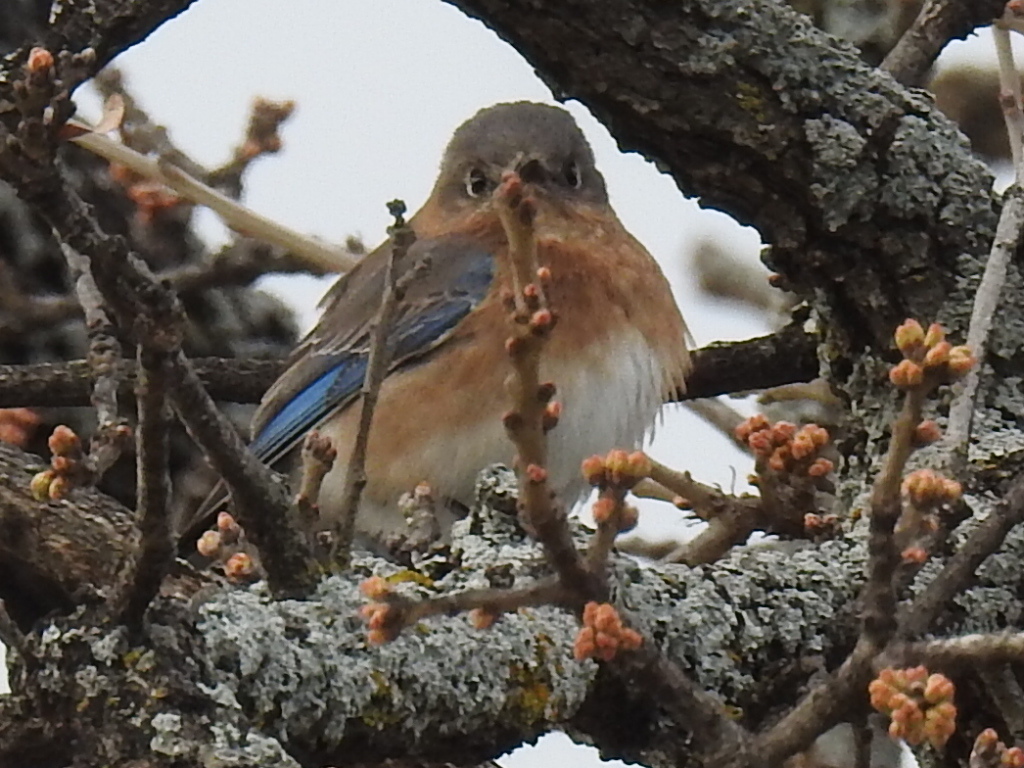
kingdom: Animalia
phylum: Chordata
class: Aves
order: Passeriformes
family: Turdidae
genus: Sialia
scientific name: Sialia sialis
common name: Eastern bluebird
